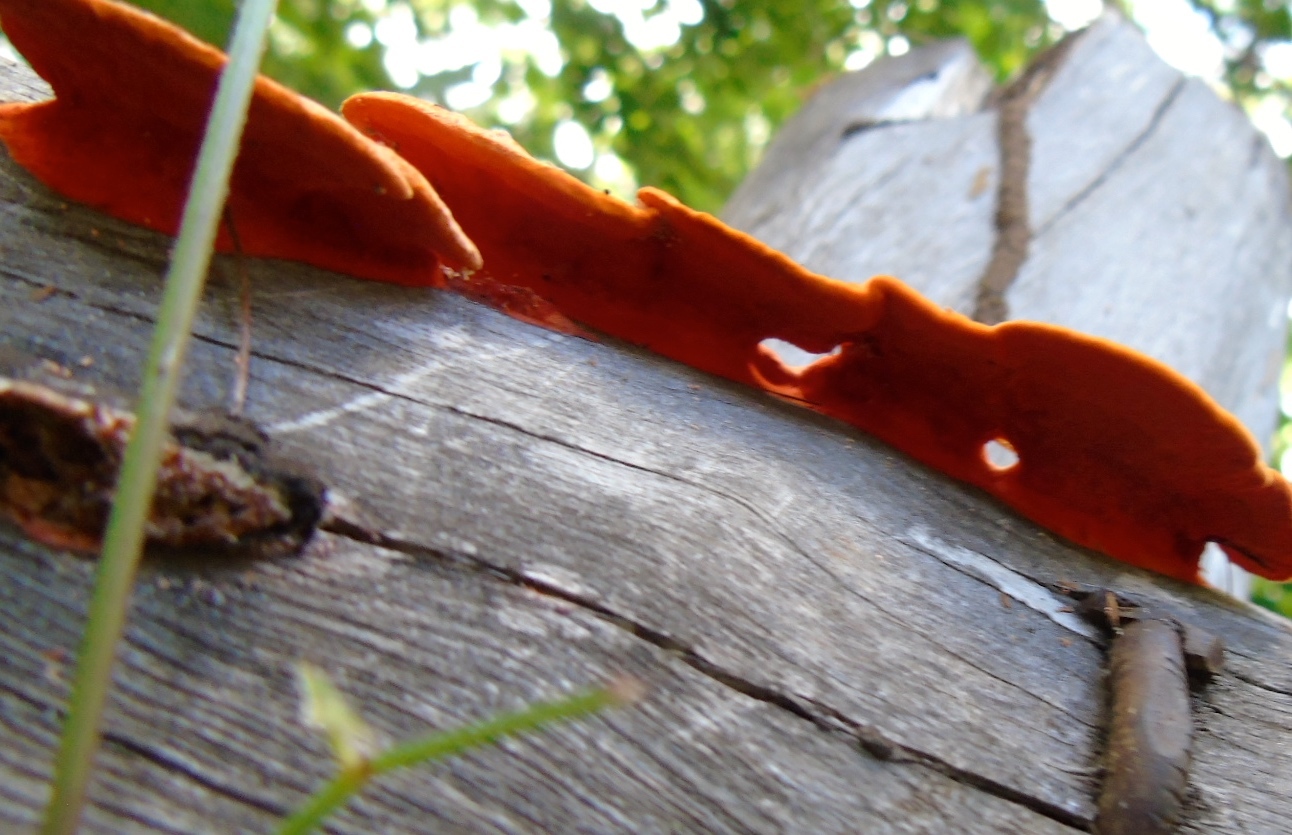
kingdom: Fungi
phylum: Basidiomycota
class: Agaricomycetes
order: Polyporales
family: Polyporaceae
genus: Trametes
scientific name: Trametes
